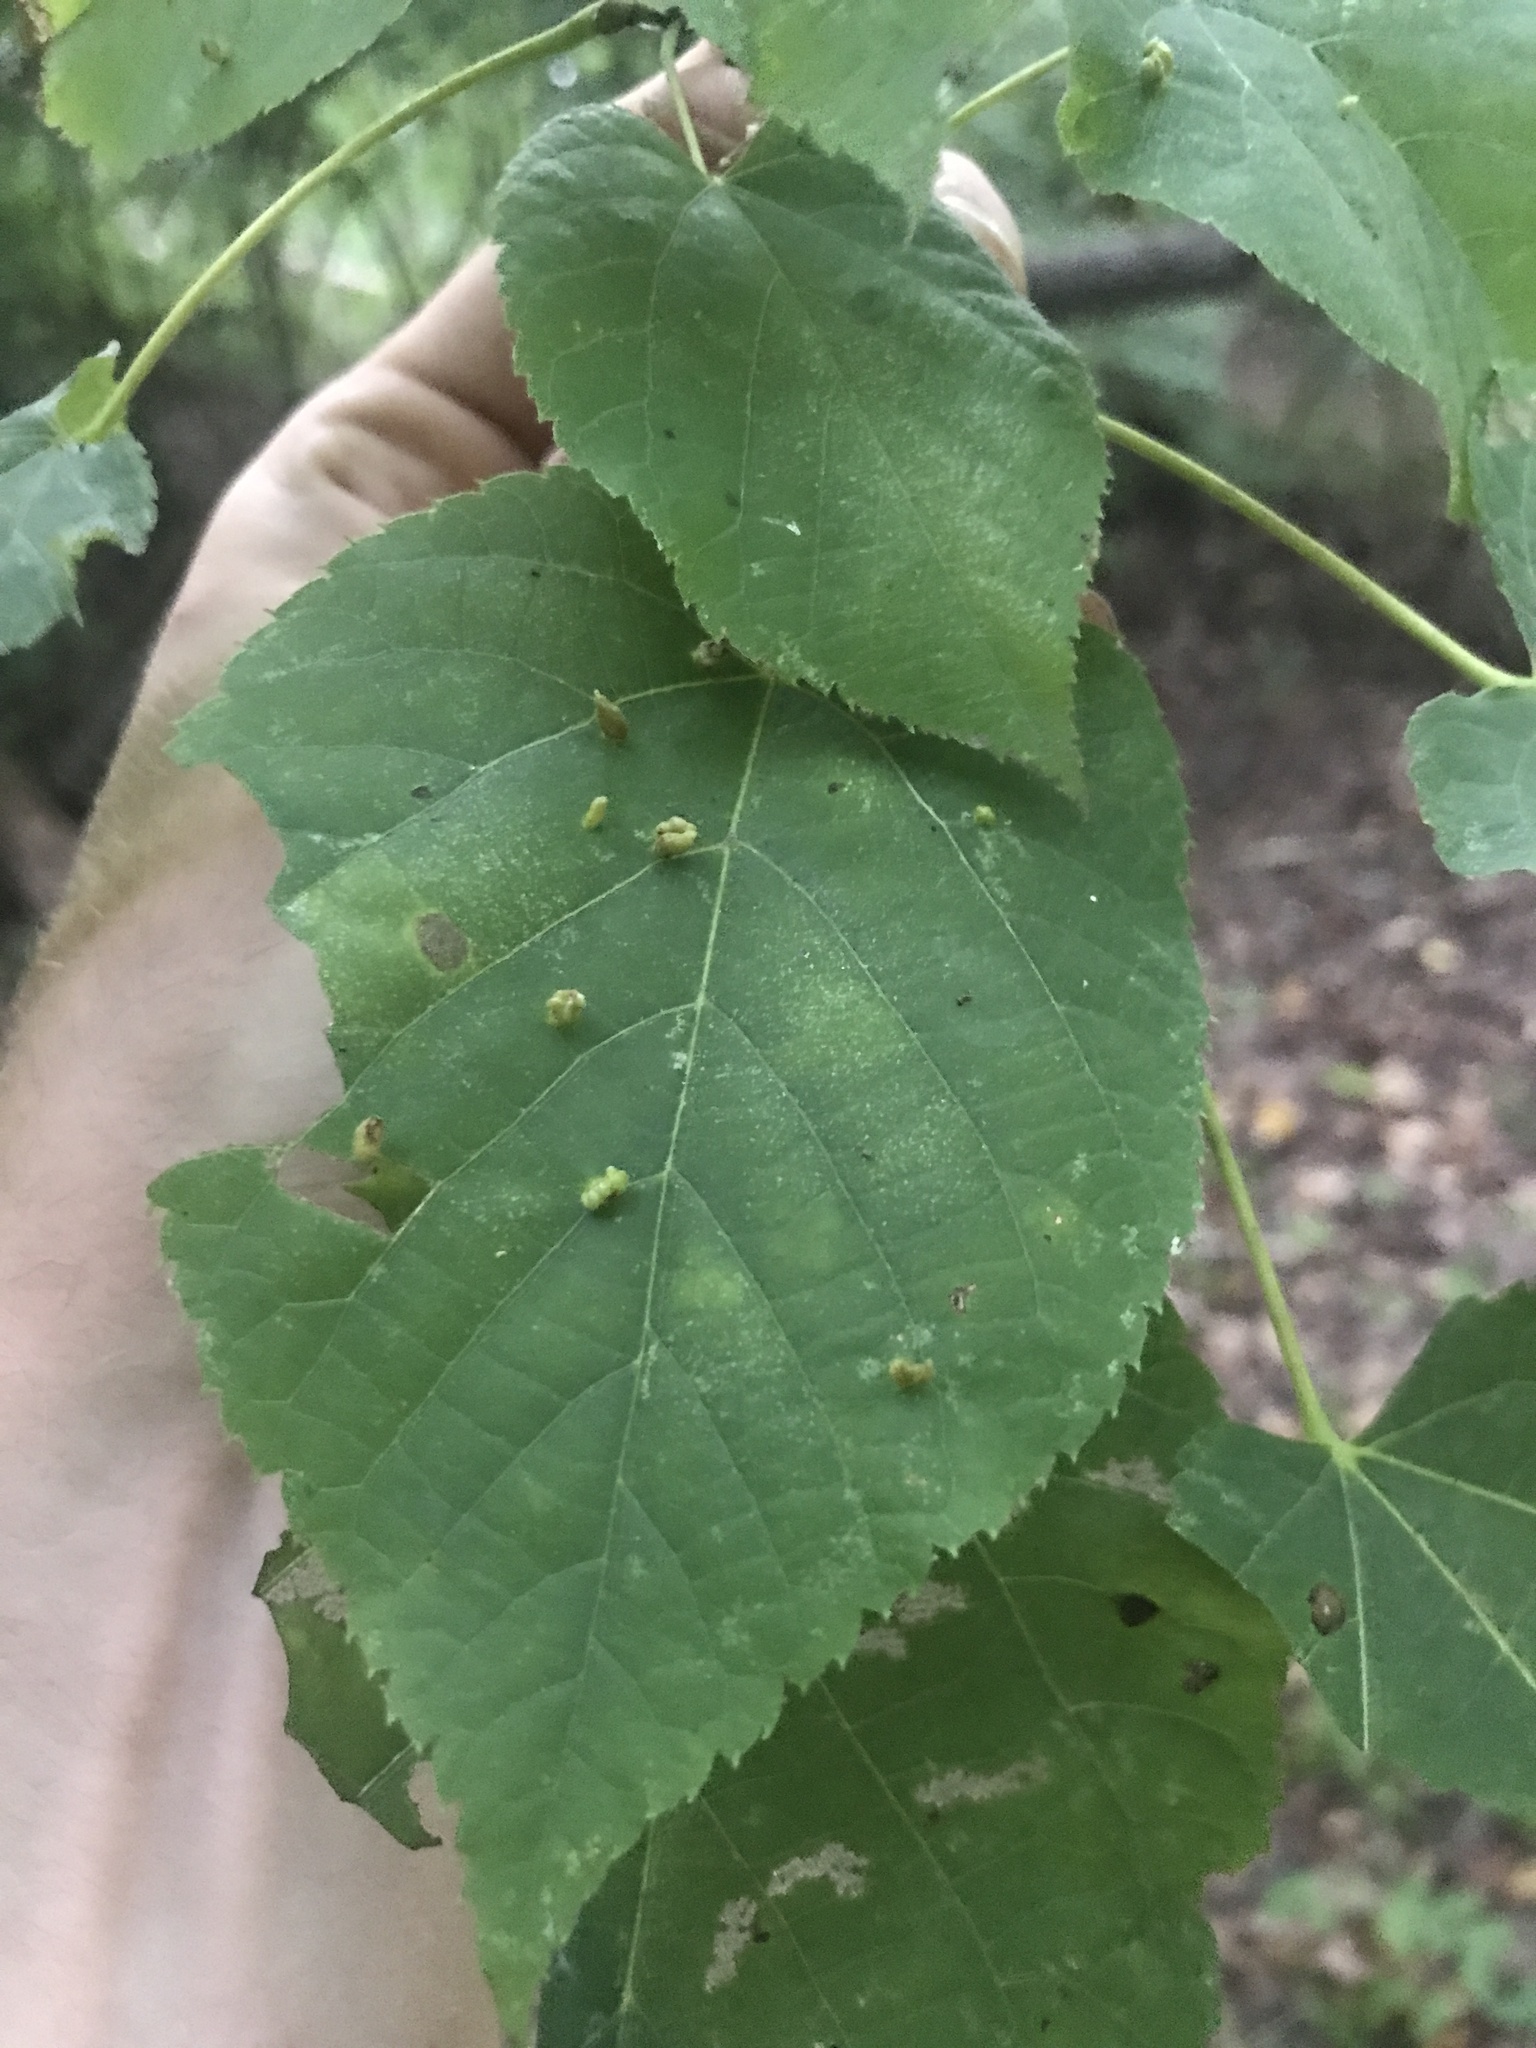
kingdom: Animalia
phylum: Arthropoda
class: Arachnida
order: Trombidiformes
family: Eriophyidae
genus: Eriophyes
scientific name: Eriophyes tiliae
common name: Red nail gall mite
